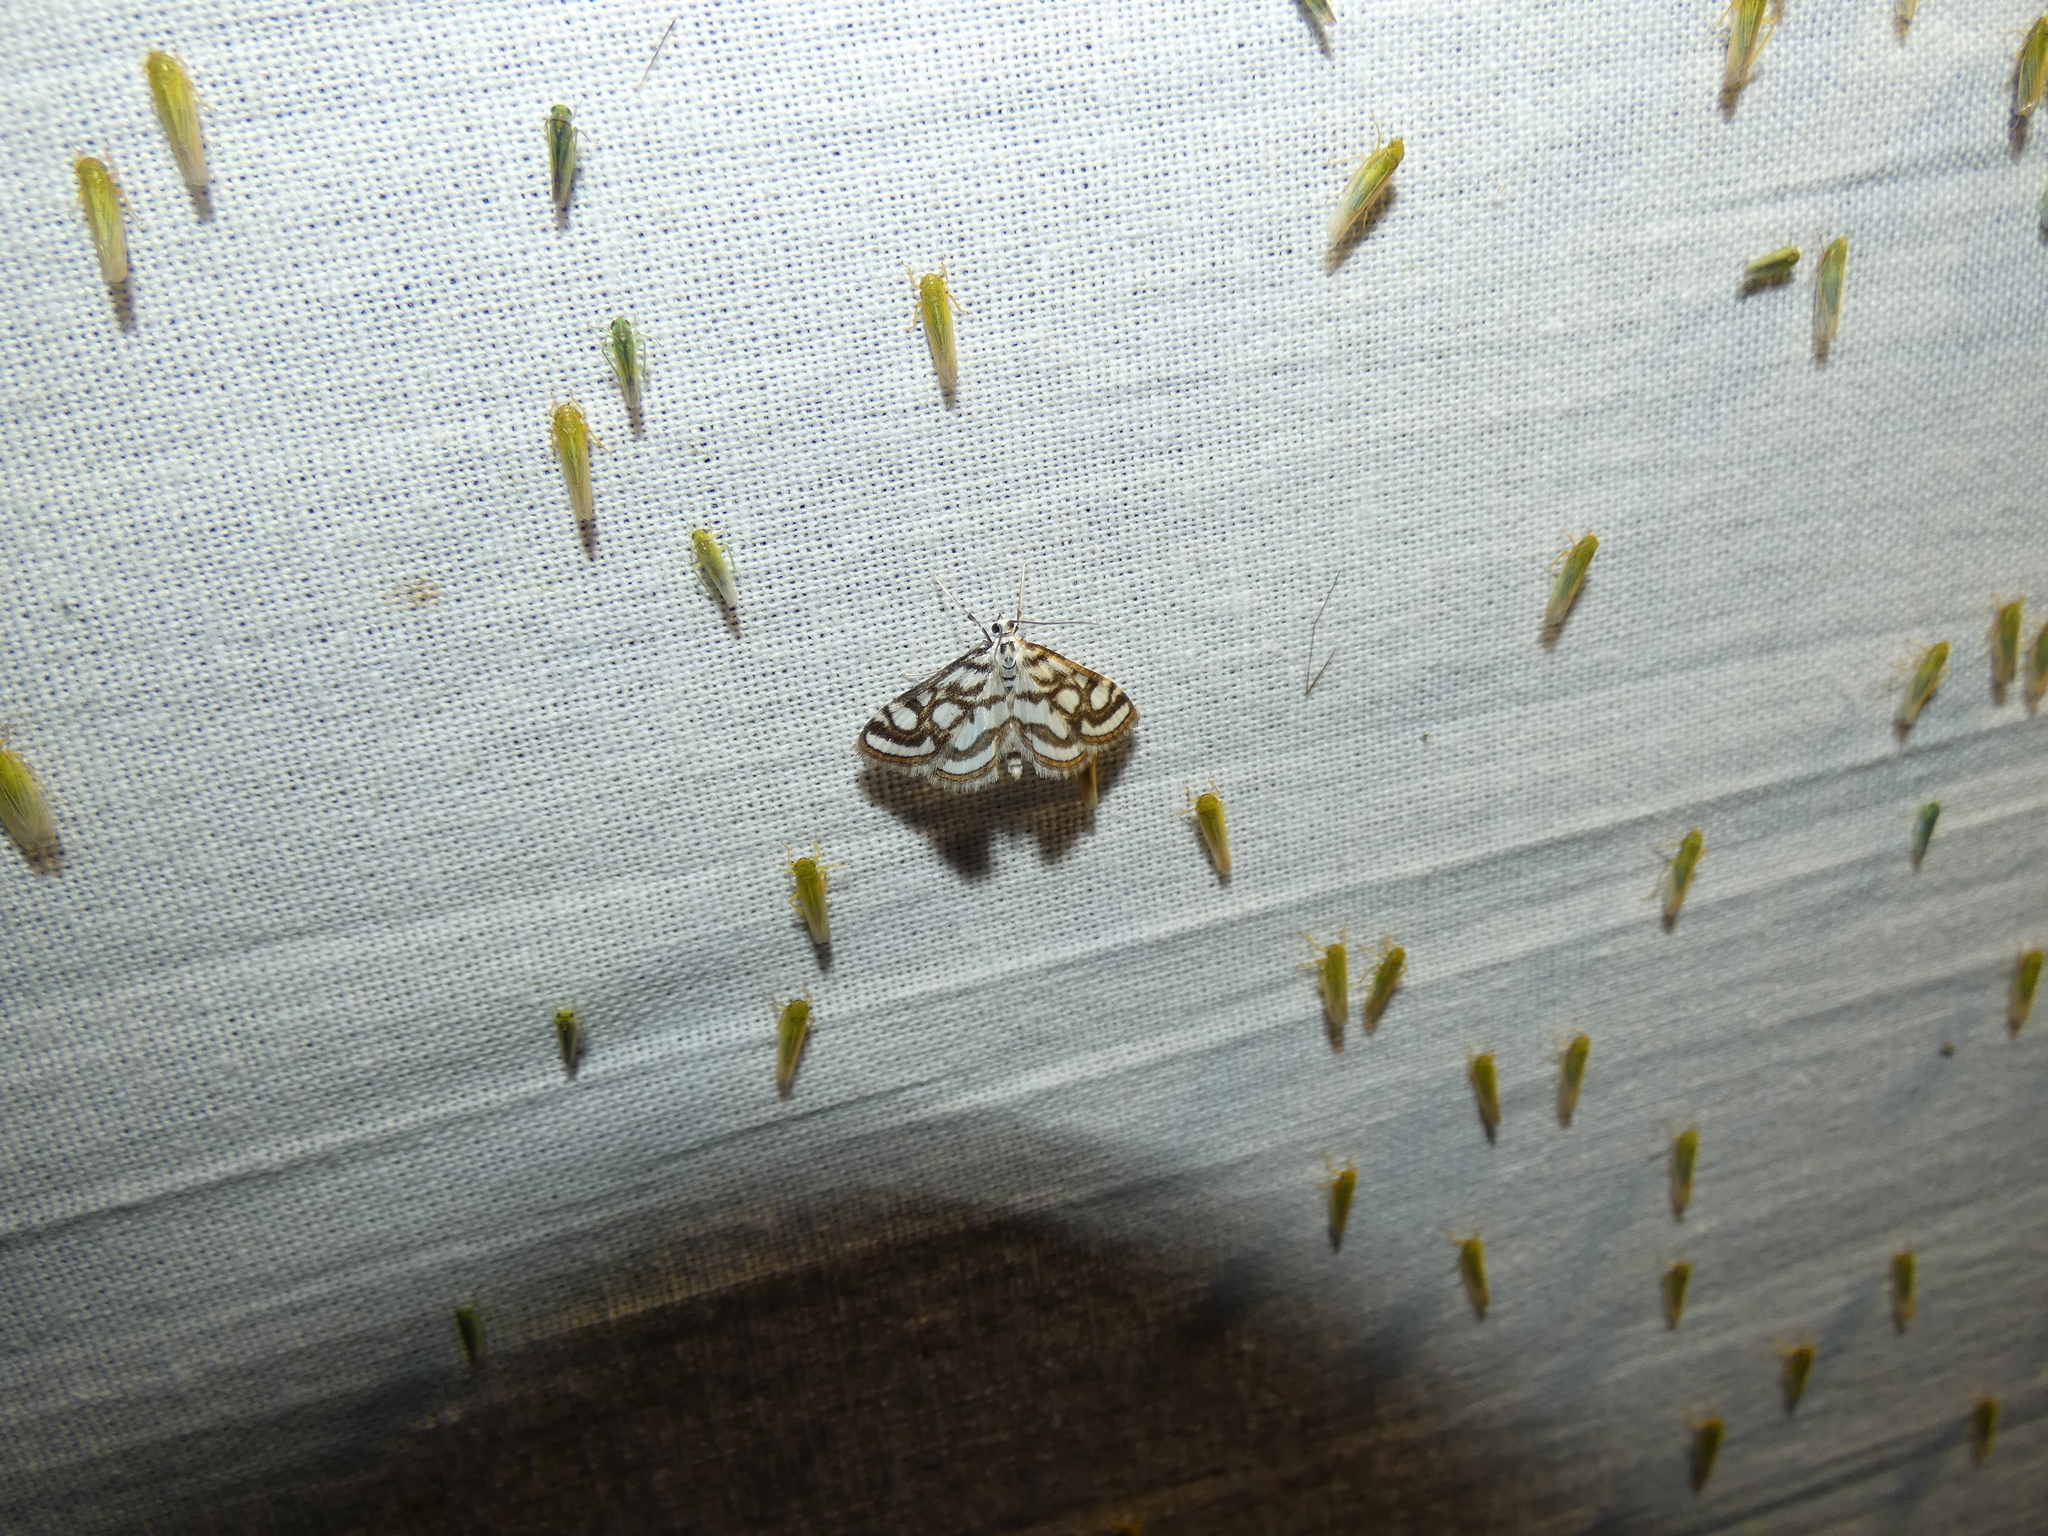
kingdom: Animalia
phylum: Arthropoda
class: Insecta
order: Lepidoptera
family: Crambidae
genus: Nymphula
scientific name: Nymphula nitidulata
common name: Beautiful china mark
